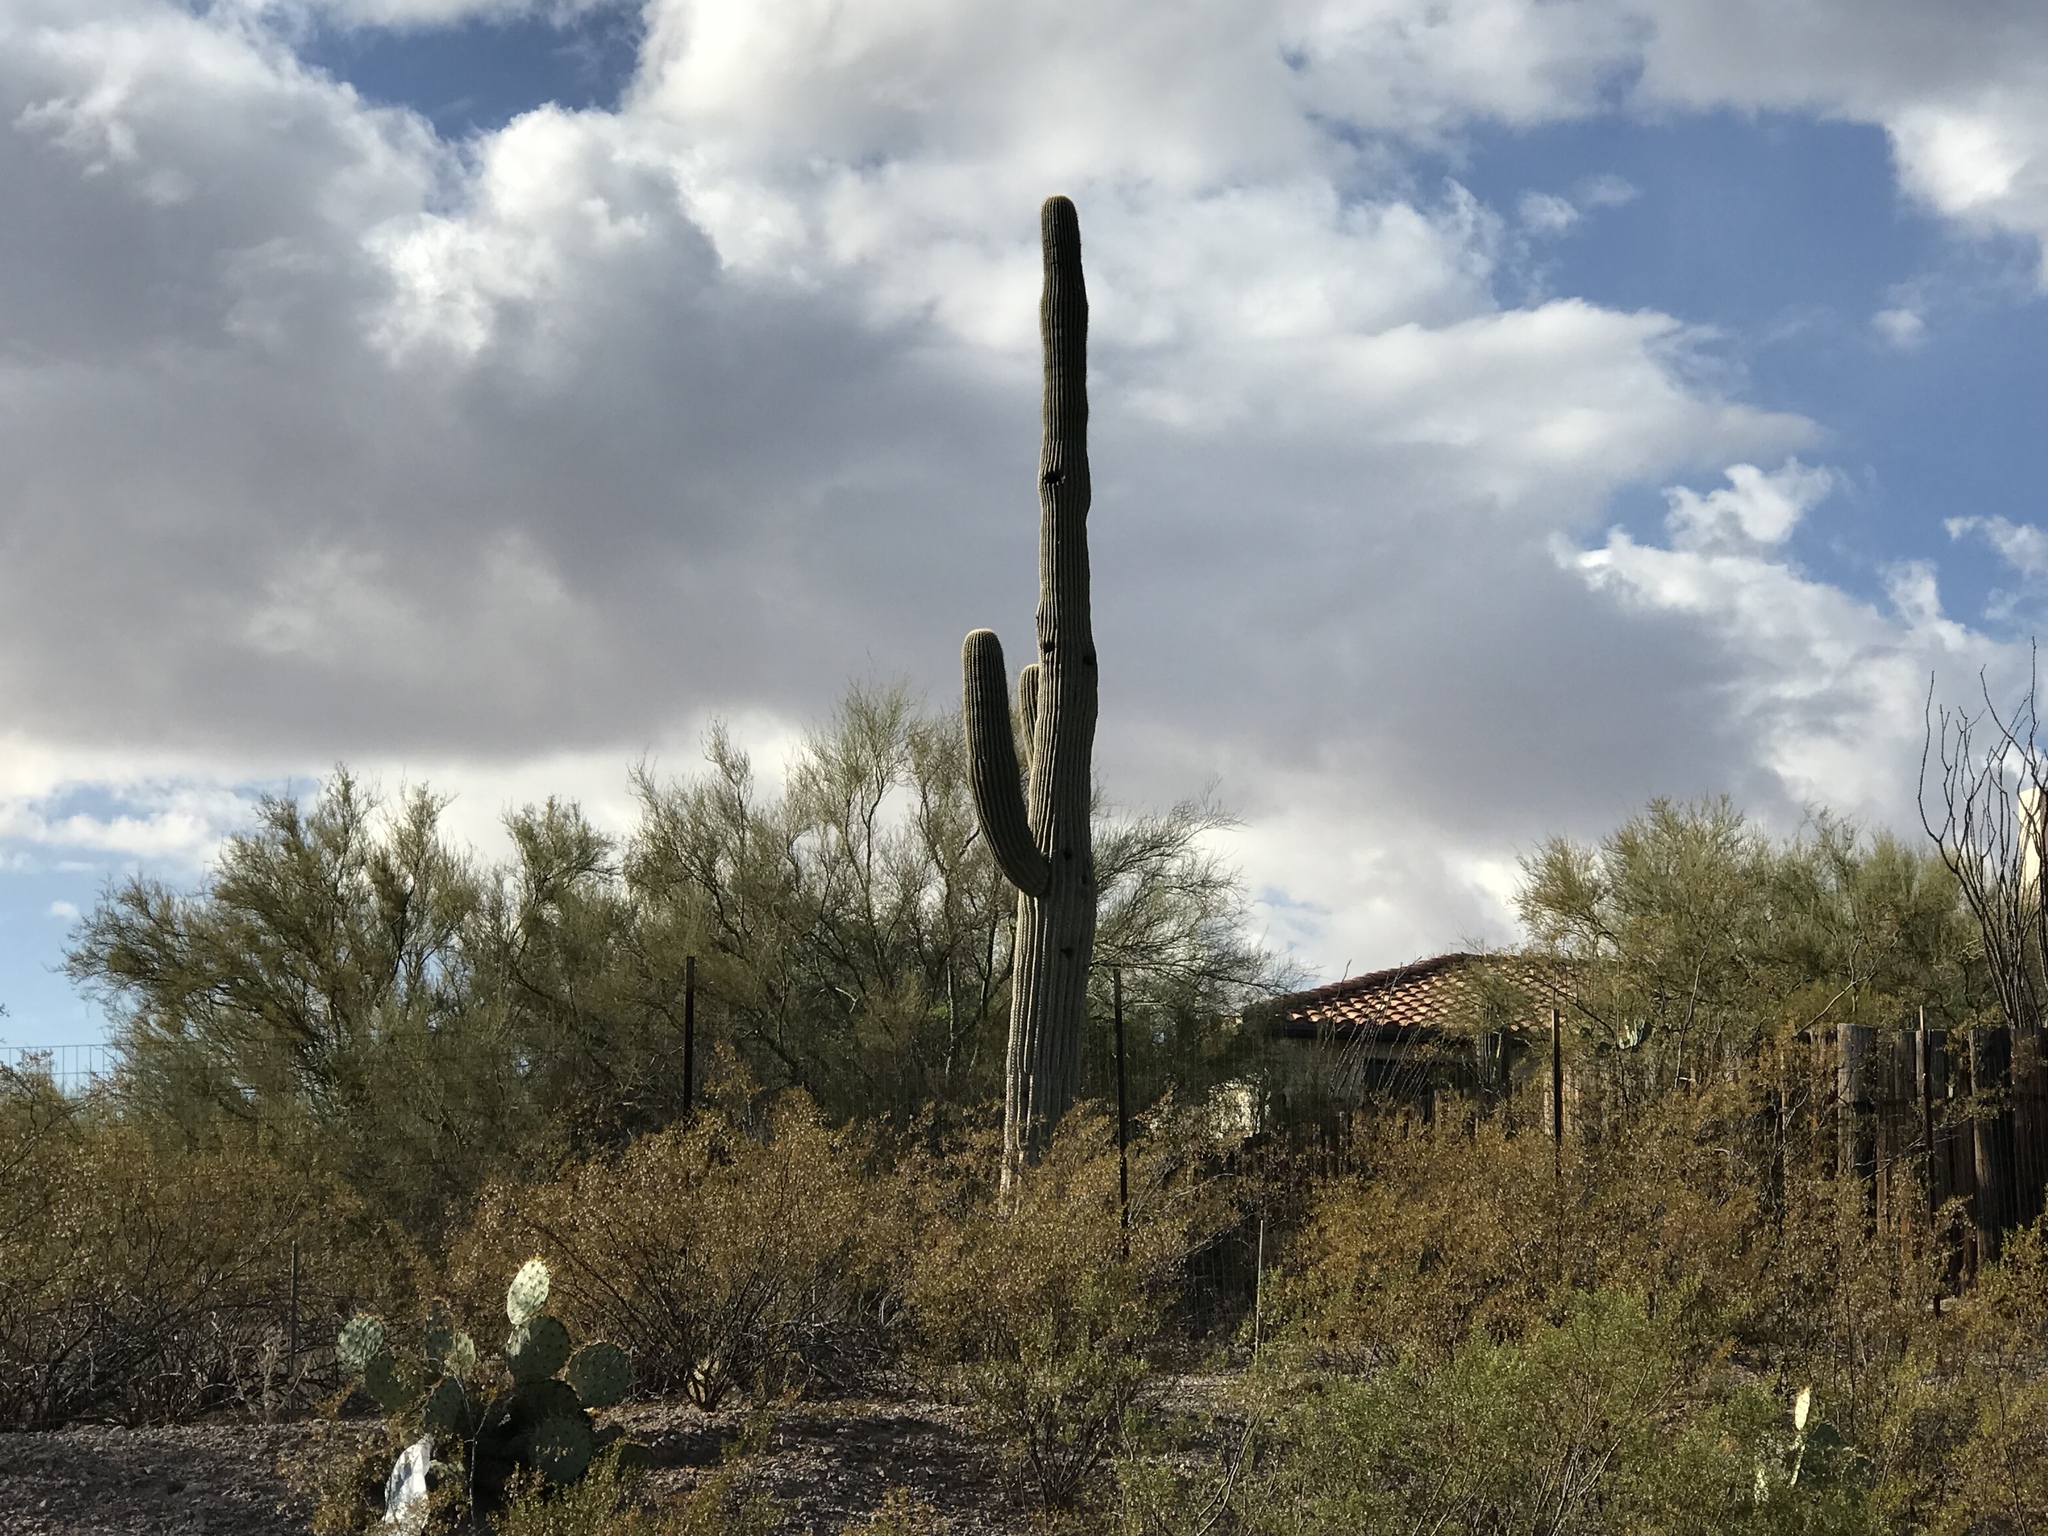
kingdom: Plantae
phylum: Tracheophyta
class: Magnoliopsida
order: Caryophyllales
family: Cactaceae
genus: Carnegiea
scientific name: Carnegiea gigantea
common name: Saguaro
